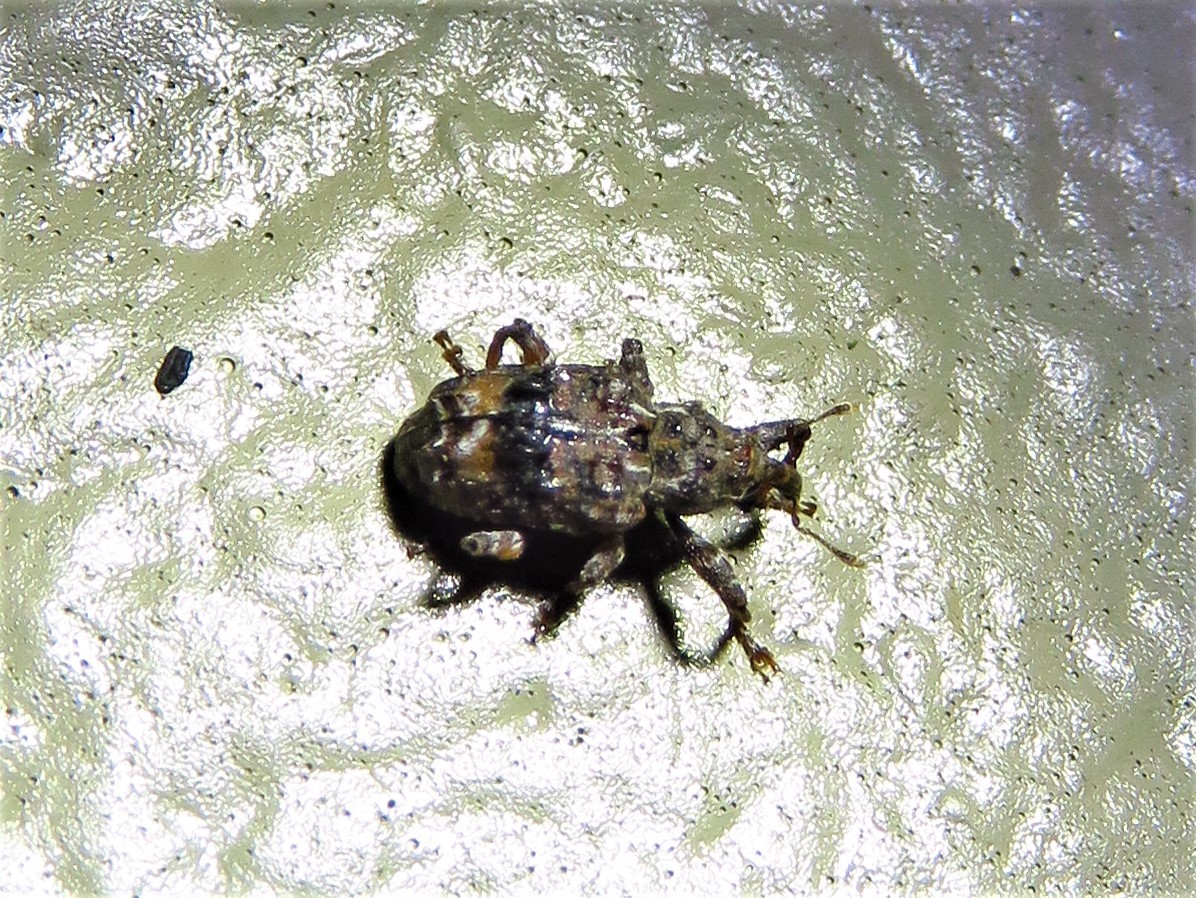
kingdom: Animalia
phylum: Arthropoda
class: Insecta
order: Coleoptera
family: Curculionidae
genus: Conotrachelus
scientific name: Conotrachelus nenuphar
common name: Plum curculio
